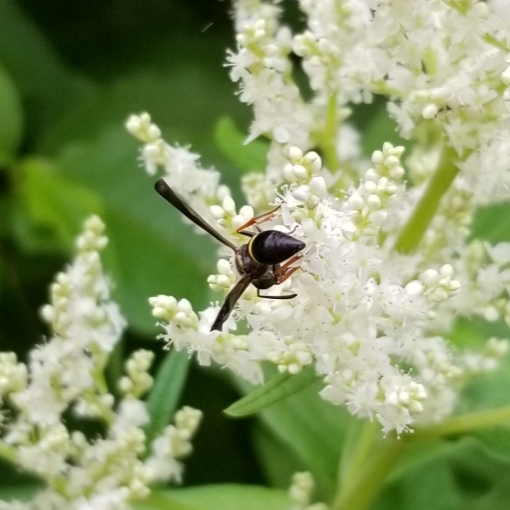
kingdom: Animalia
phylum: Arthropoda
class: Insecta
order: Hymenoptera
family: Vespidae
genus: Ancistrocerus
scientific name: Ancistrocerus unifasciatus
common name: One-banded mason wasp
